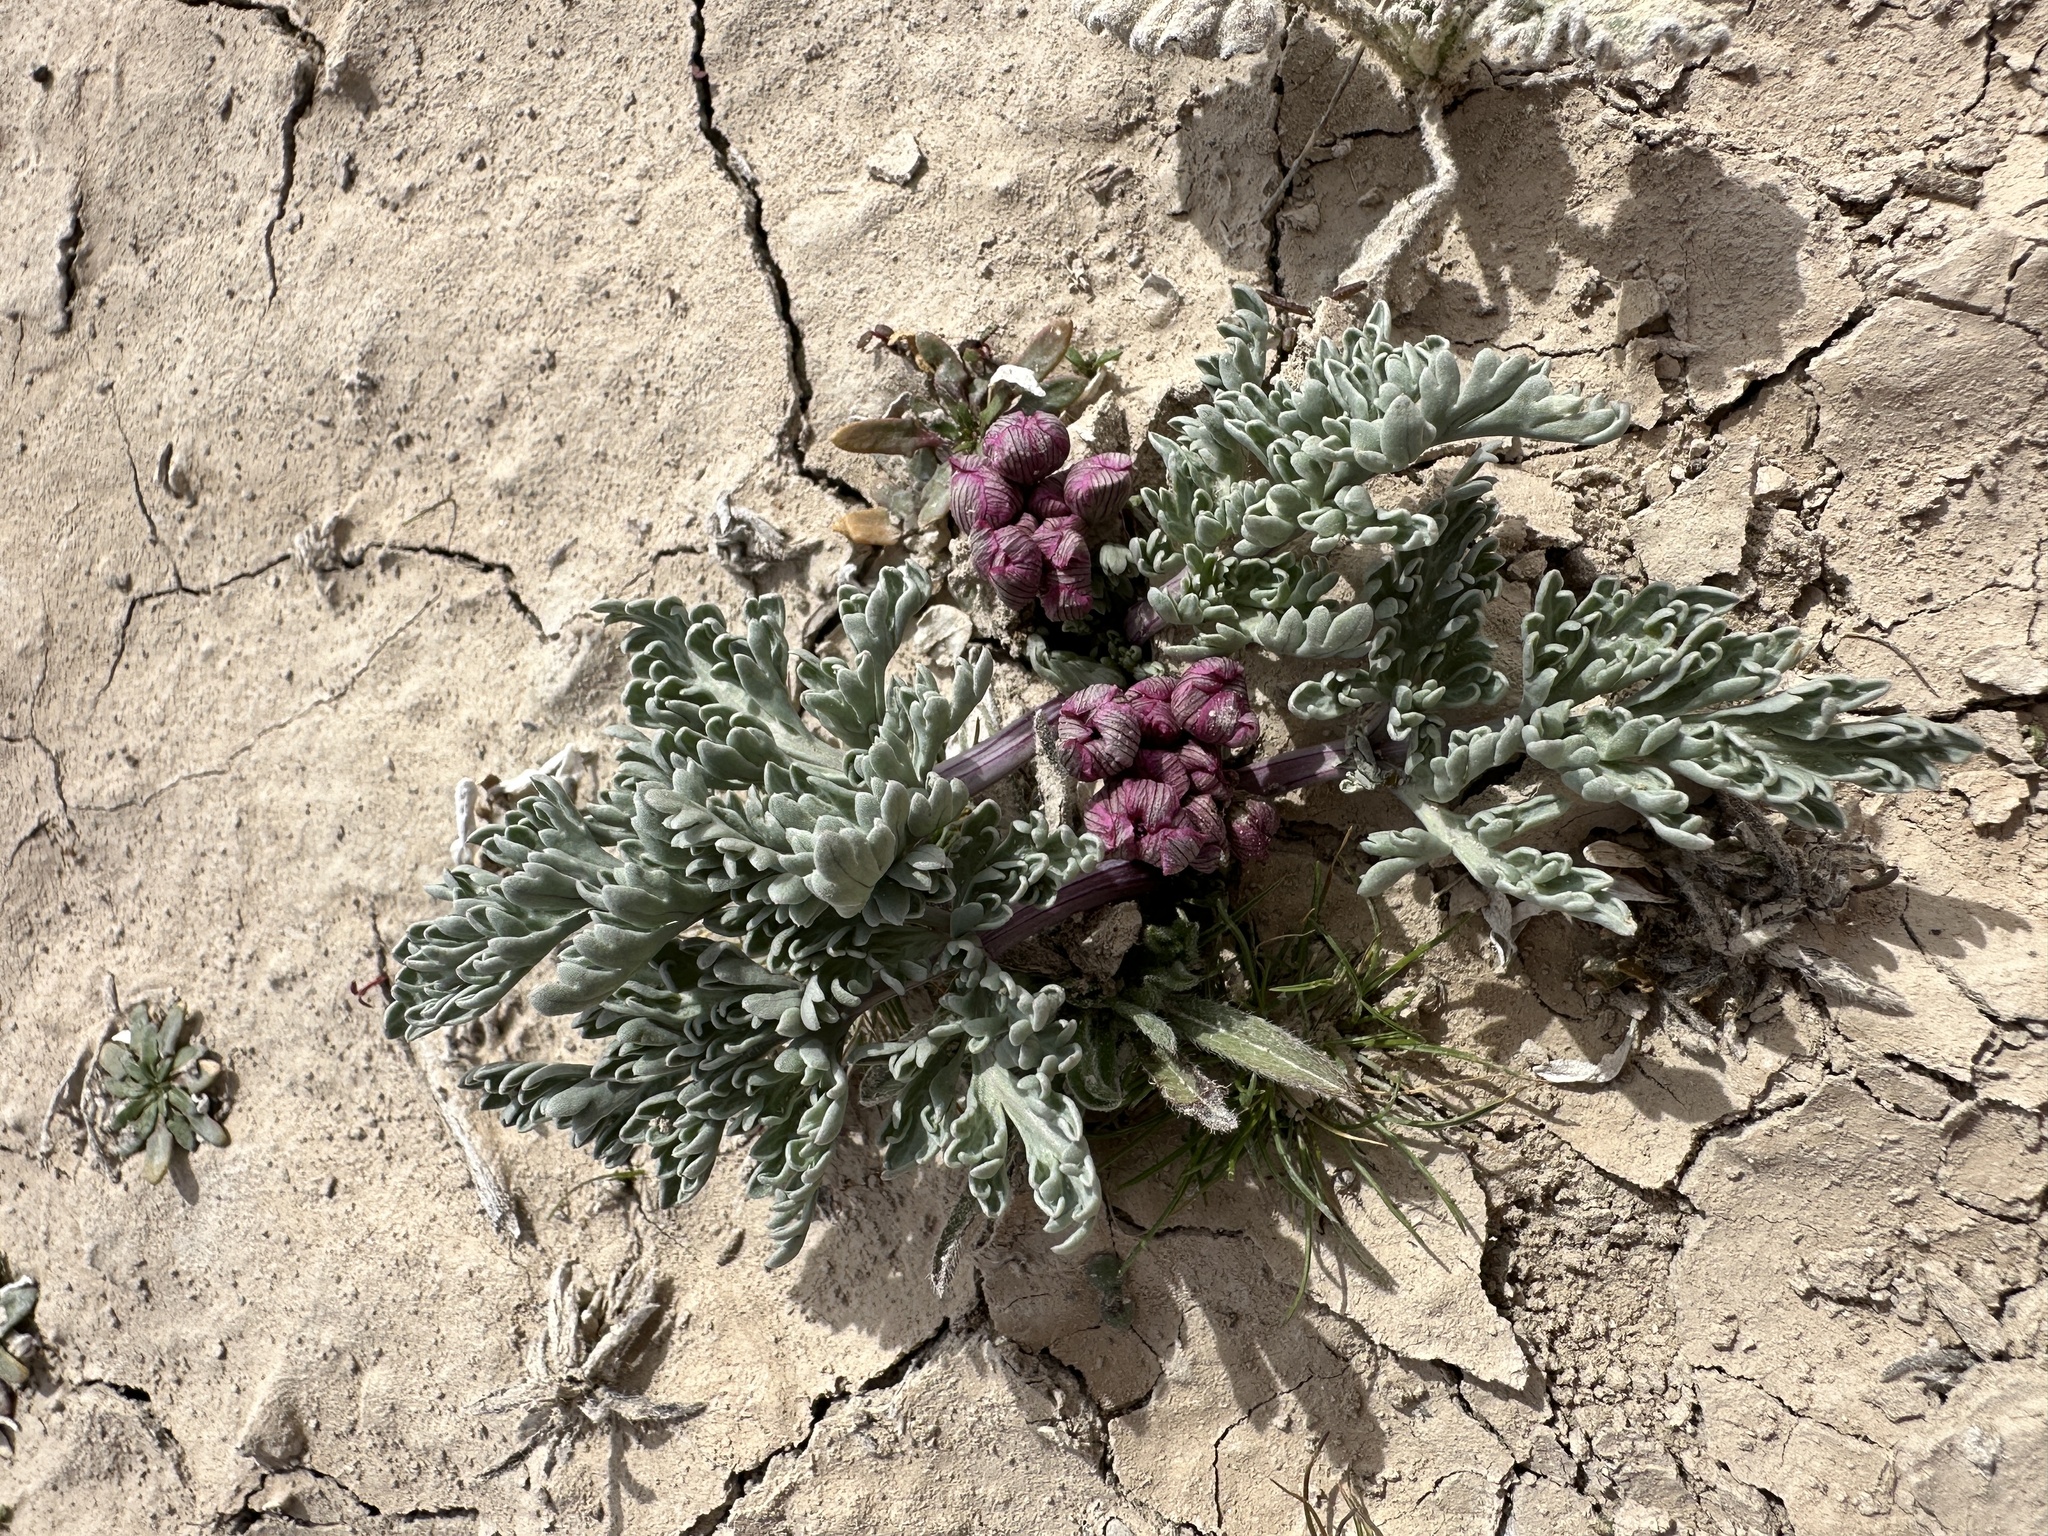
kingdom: Plantae
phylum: Tracheophyta
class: Magnoliopsida
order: Apiales
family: Apiaceae
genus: Vesper
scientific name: Vesper multinervatus
